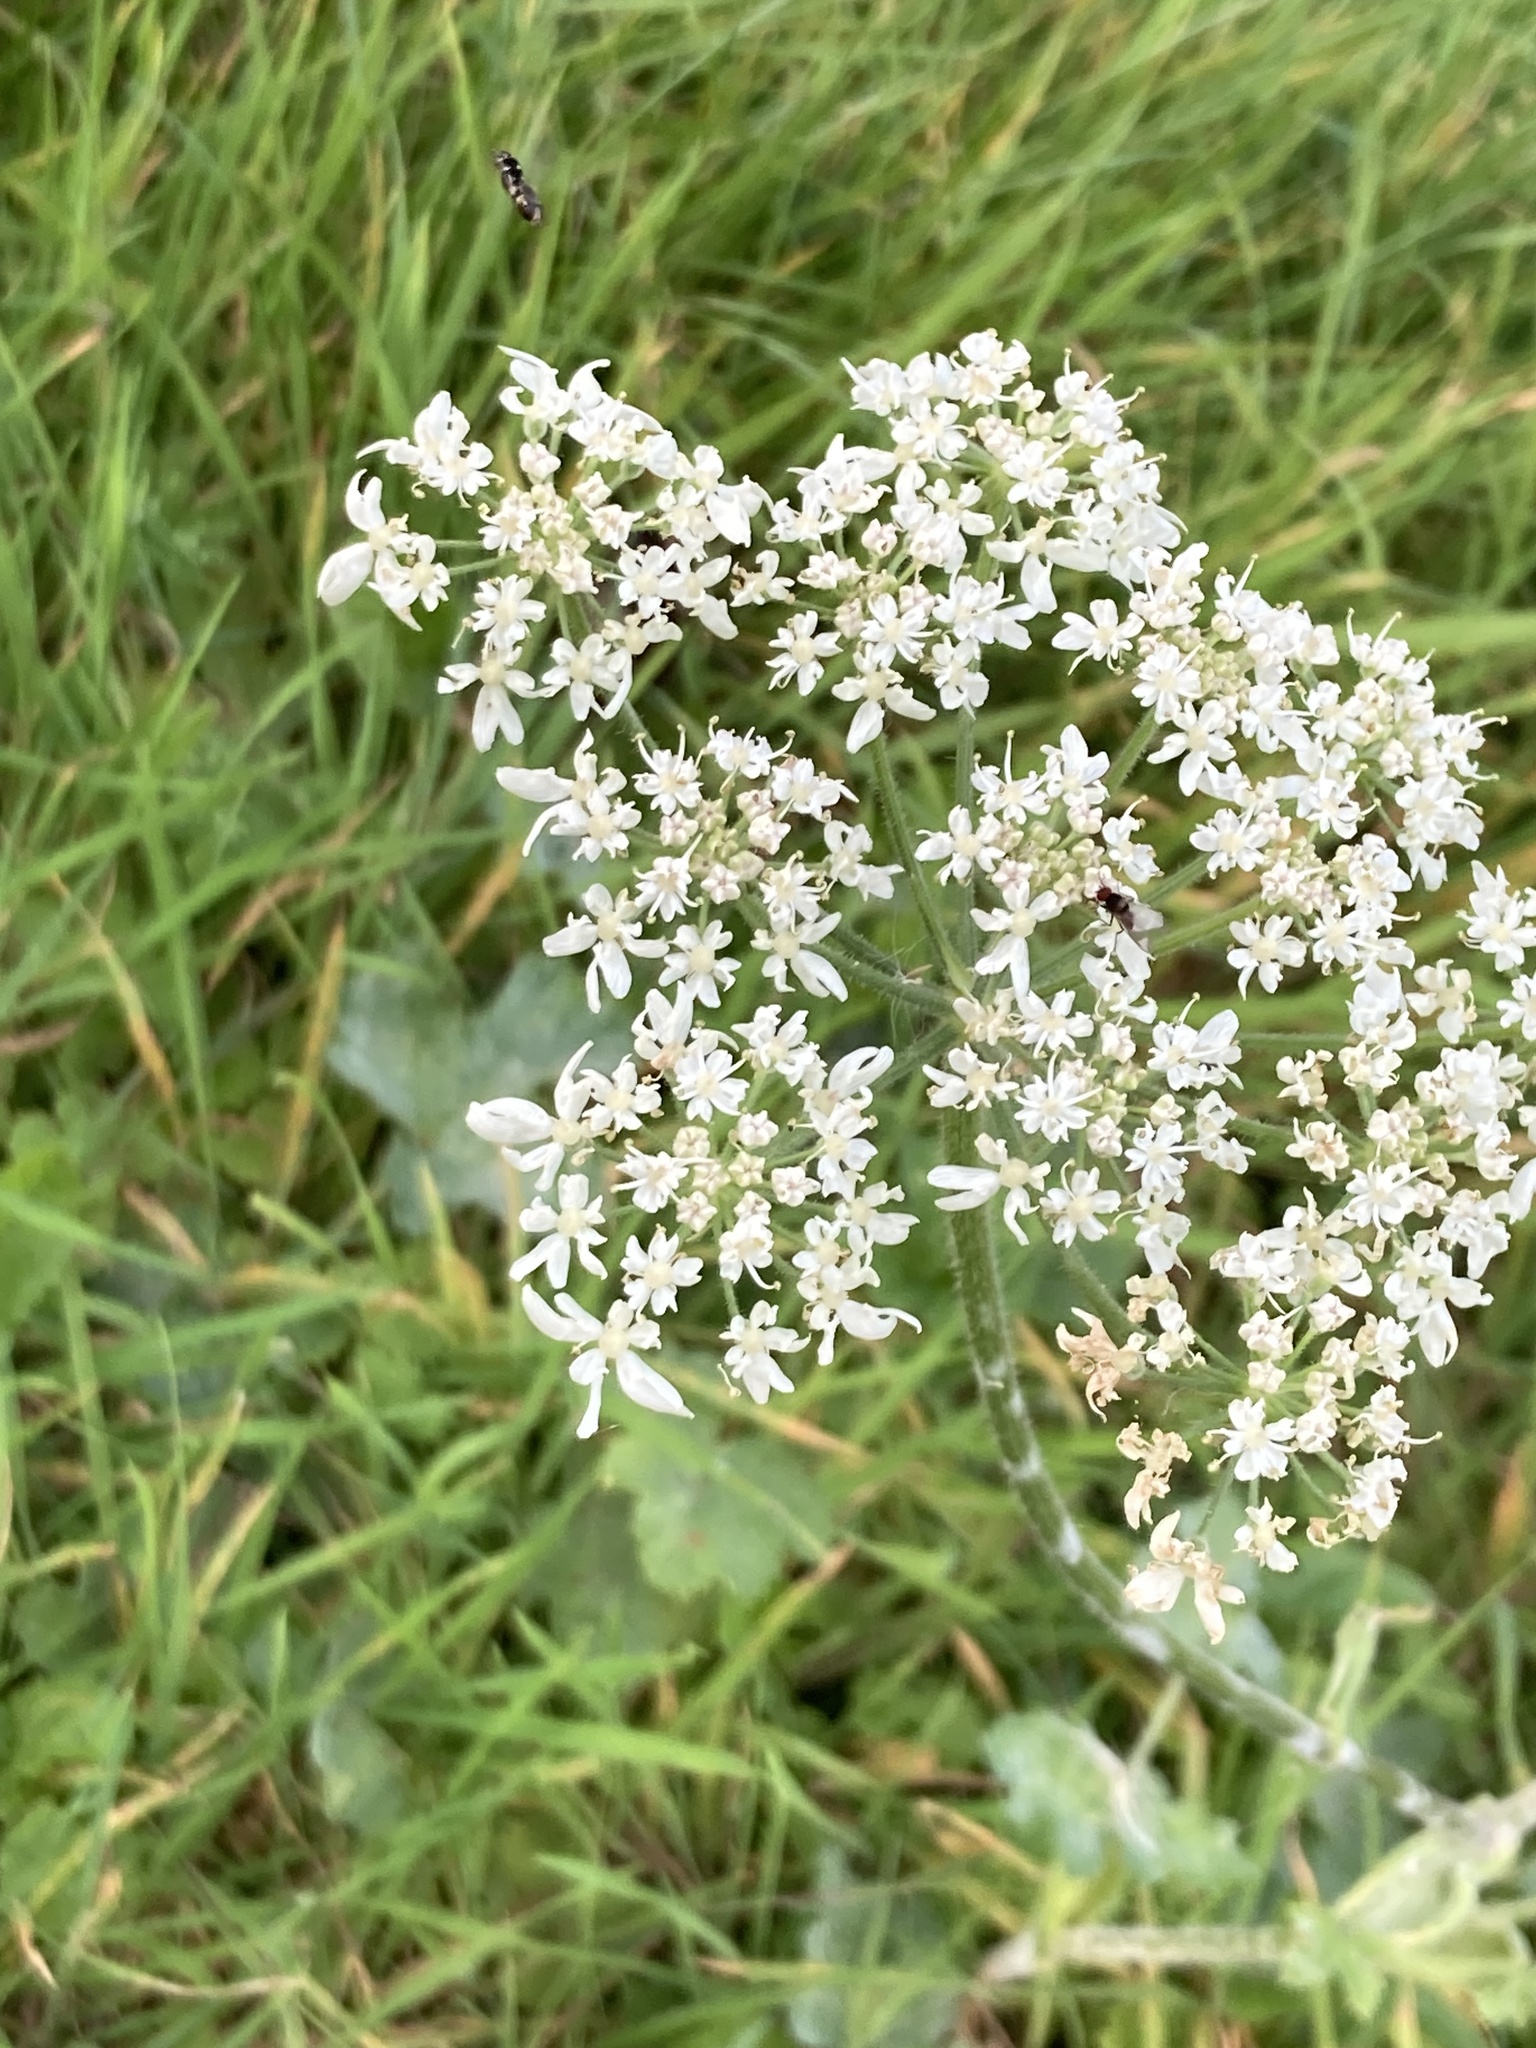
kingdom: Plantae
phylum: Tracheophyta
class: Magnoliopsida
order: Apiales
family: Apiaceae
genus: Heracleum
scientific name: Heracleum sphondylium
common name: Hogweed
